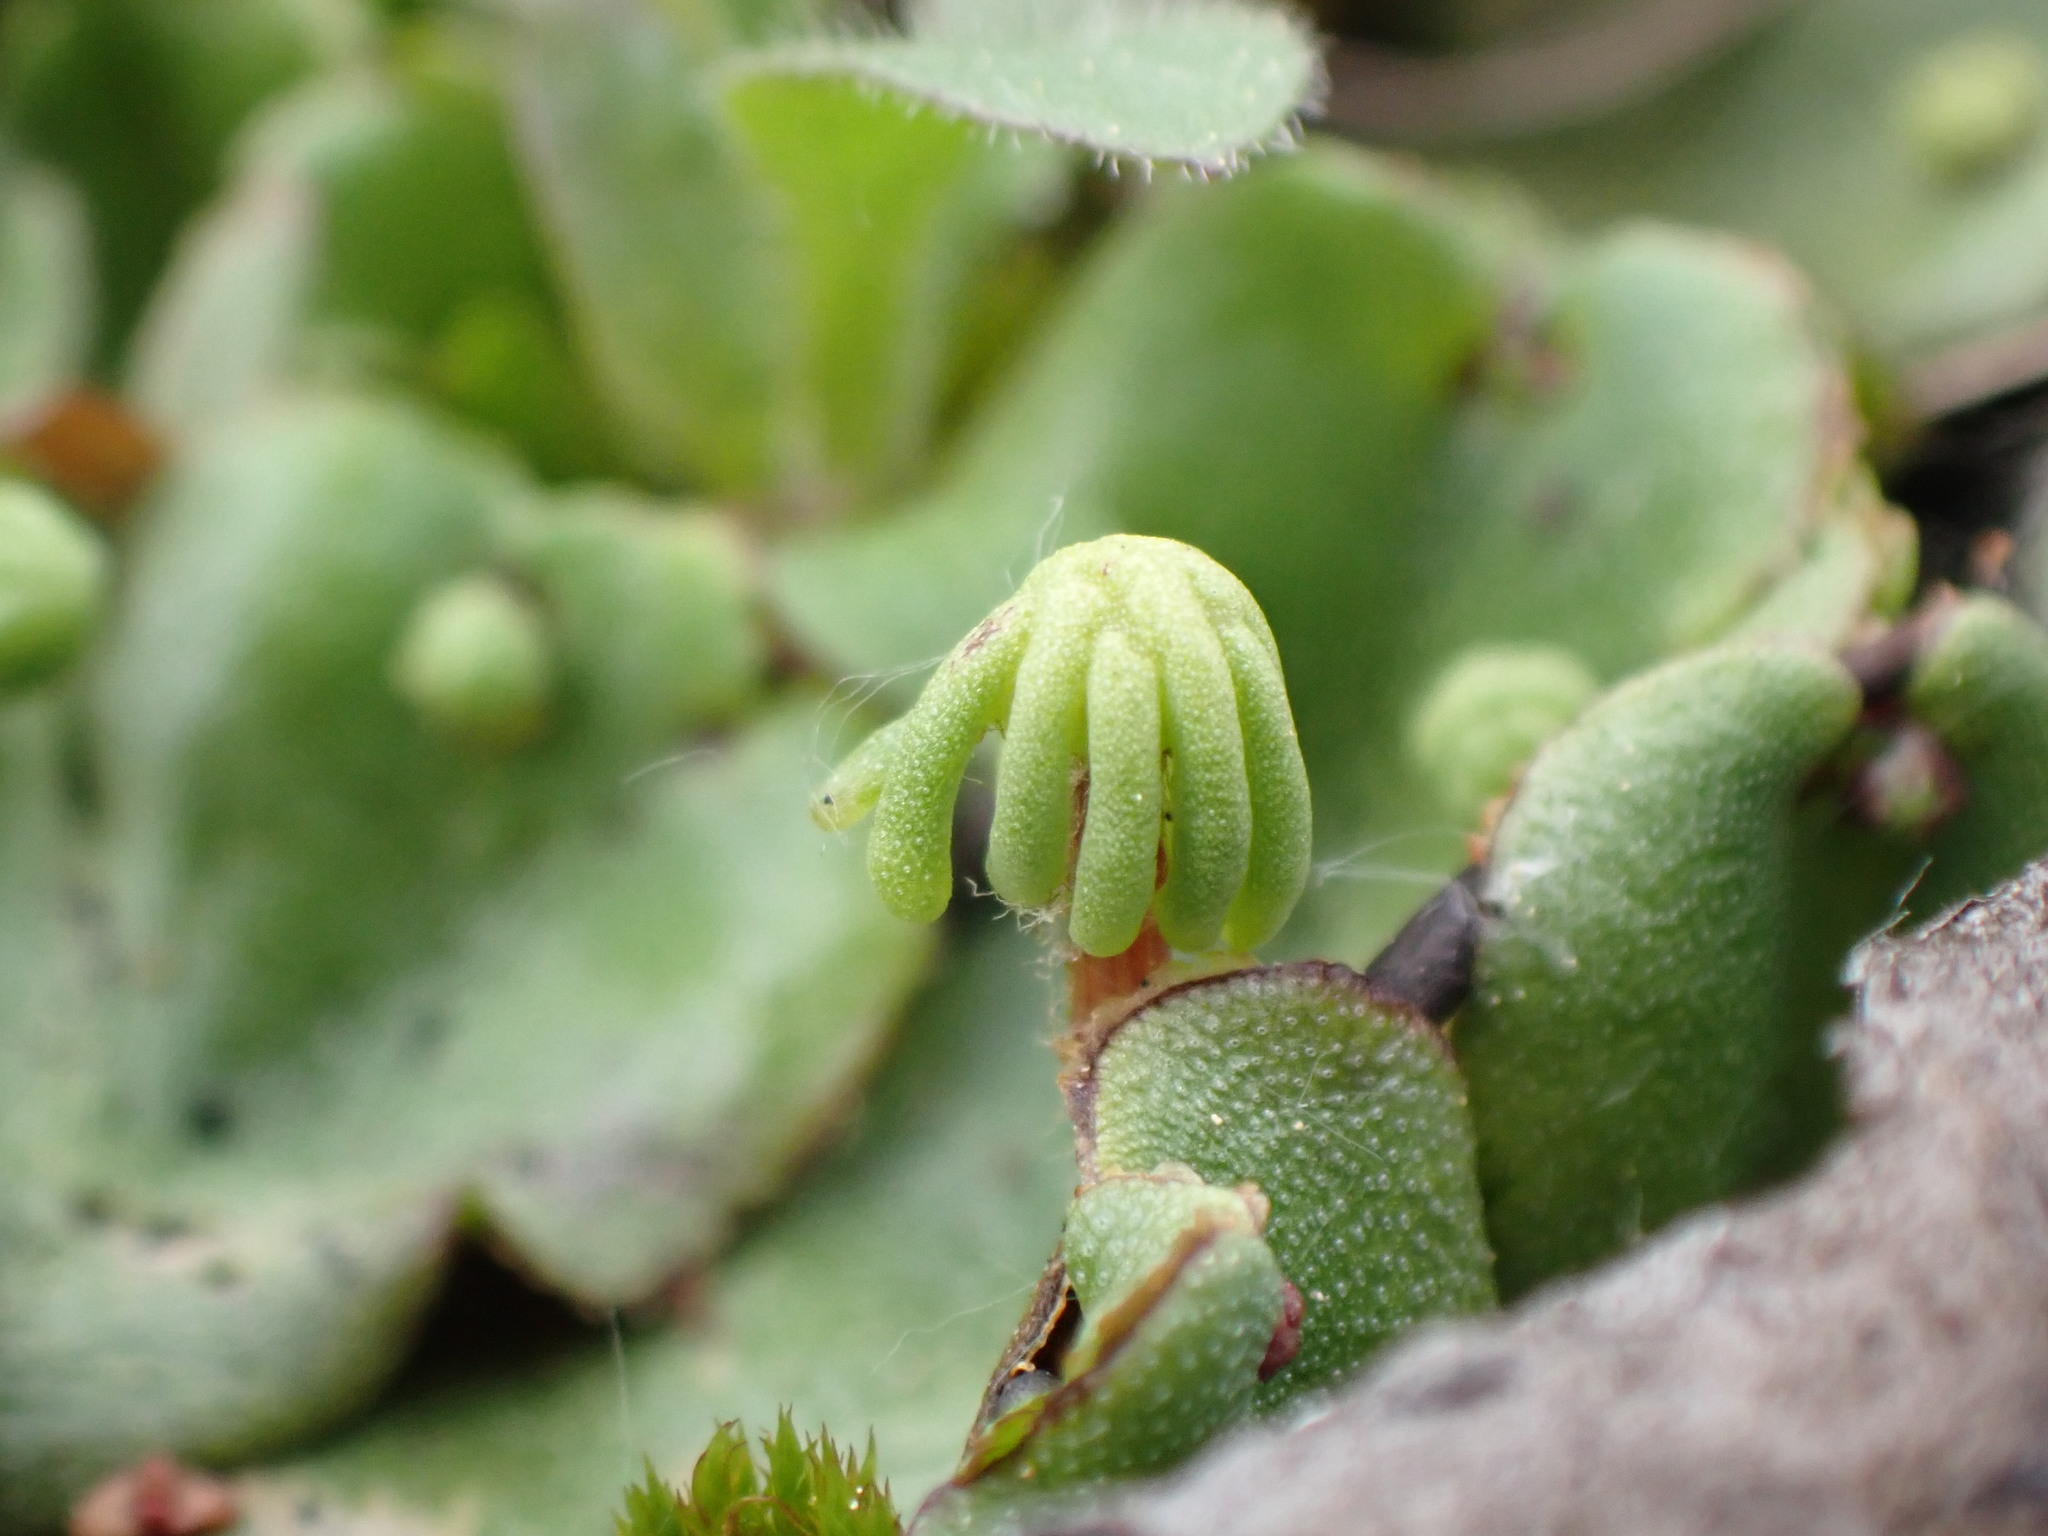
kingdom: Plantae
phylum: Marchantiophyta
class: Marchantiopsida
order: Marchantiales
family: Marchantiaceae
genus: Marchantia
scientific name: Marchantia polymorpha
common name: Common liverwort
